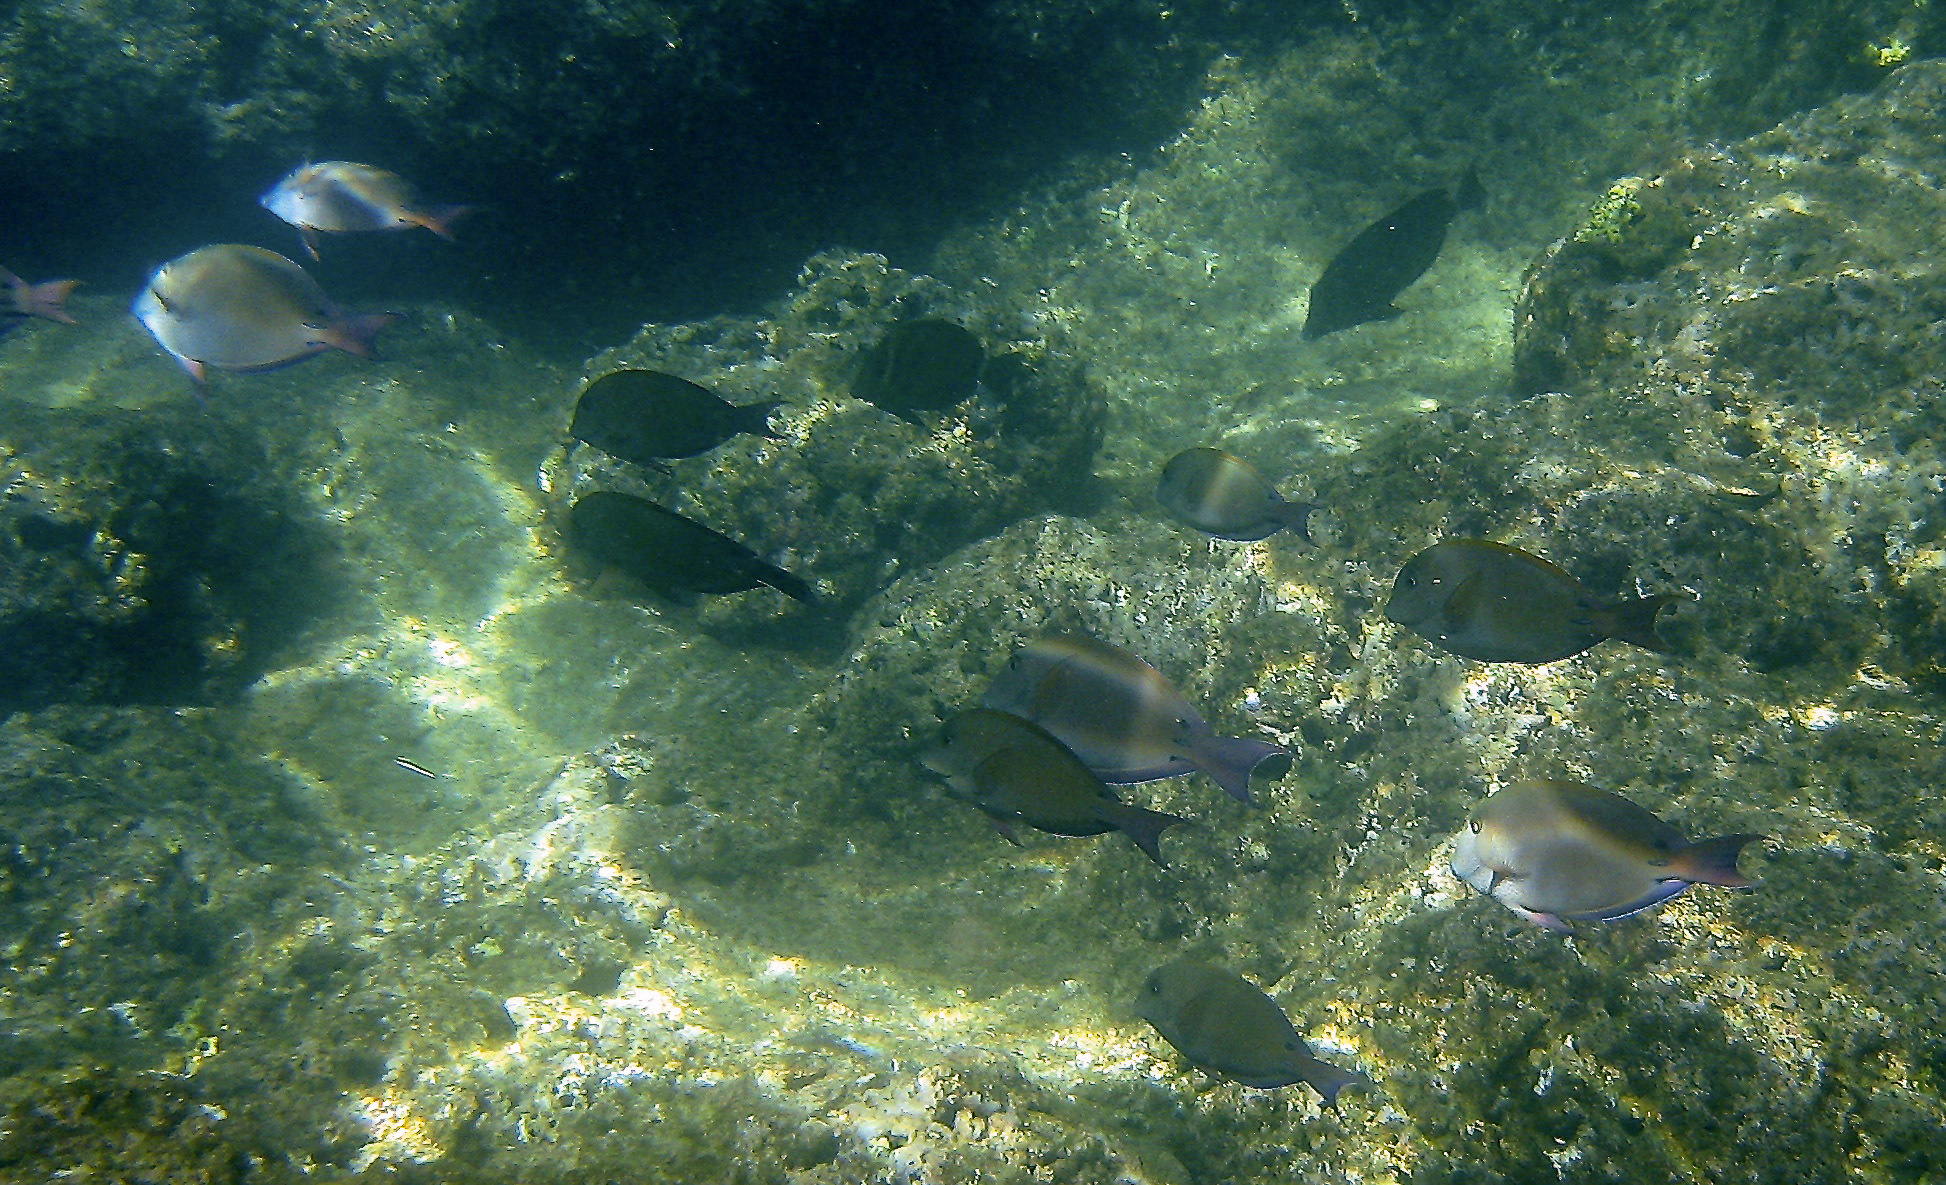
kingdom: Animalia
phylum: Chordata
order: Perciformes
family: Acanthuridae
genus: Acanthurus
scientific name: Acanthurus nigrofuscus
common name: Blackspot surgeonfish
